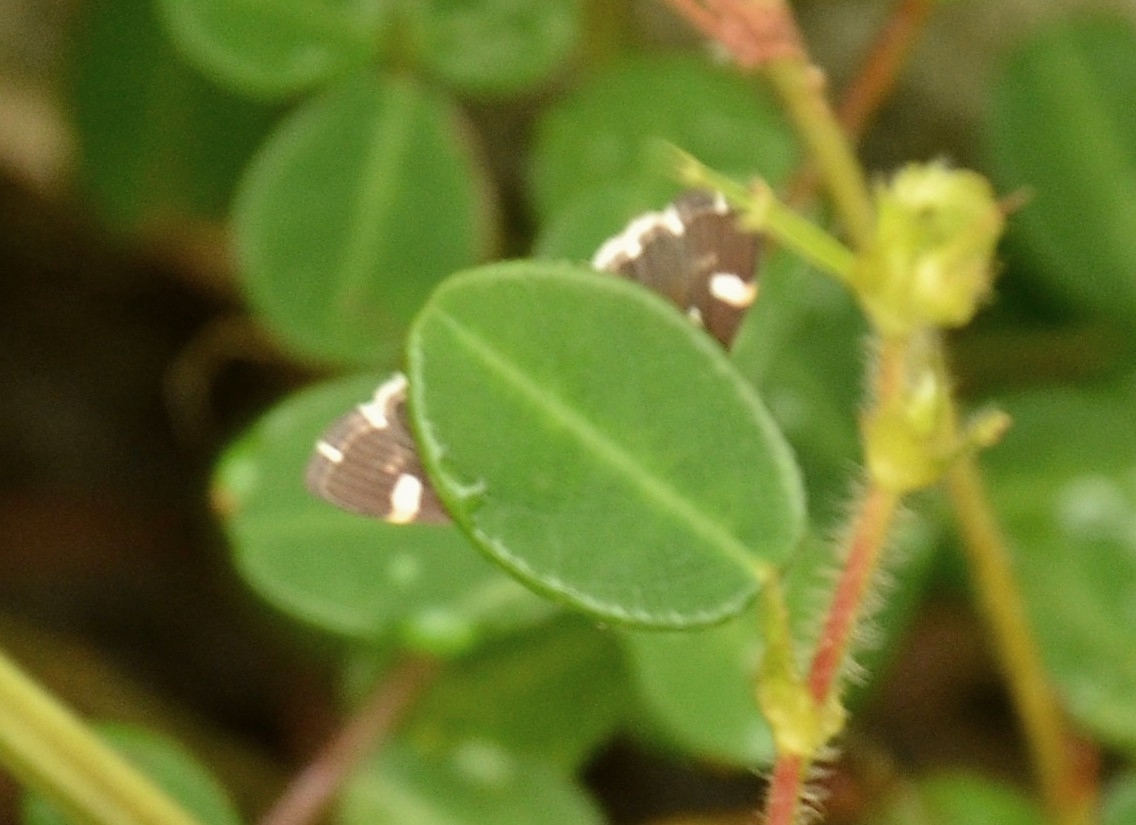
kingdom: Animalia
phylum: Arthropoda
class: Insecta
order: Lepidoptera
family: Crambidae
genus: Spoladea
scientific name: Spoladea recurvalis
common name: Beet webworm moth
